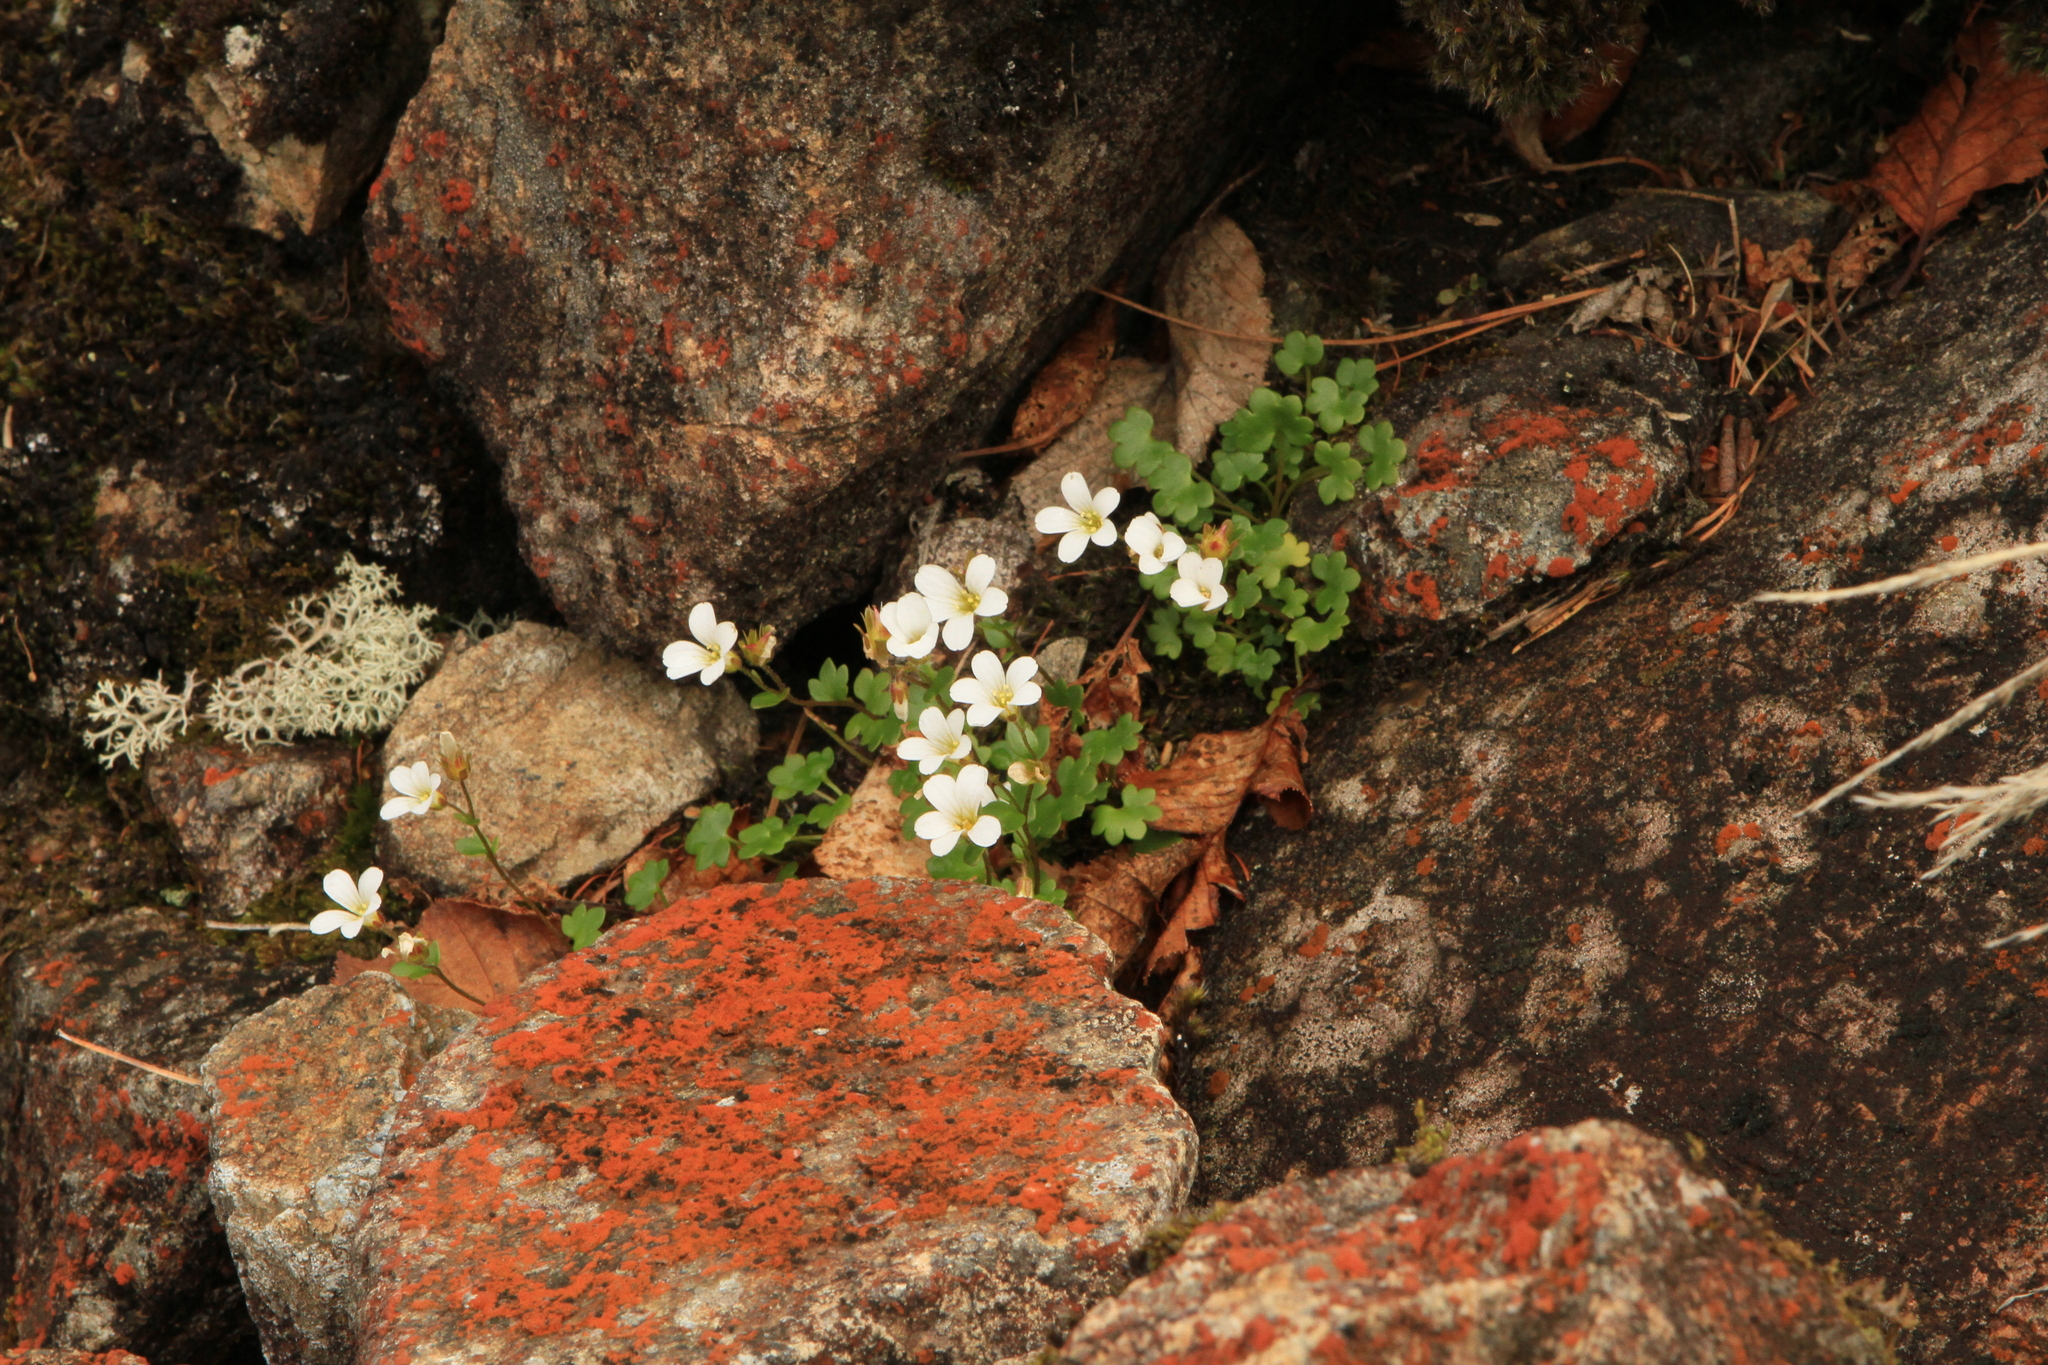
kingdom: Plantae
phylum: Tracheophyta
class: Magnoliopsida
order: Saxifragales
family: Saxifragaceae
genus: Saxifraga
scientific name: Saxifraga sibirica
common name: Siberian saxifrage
